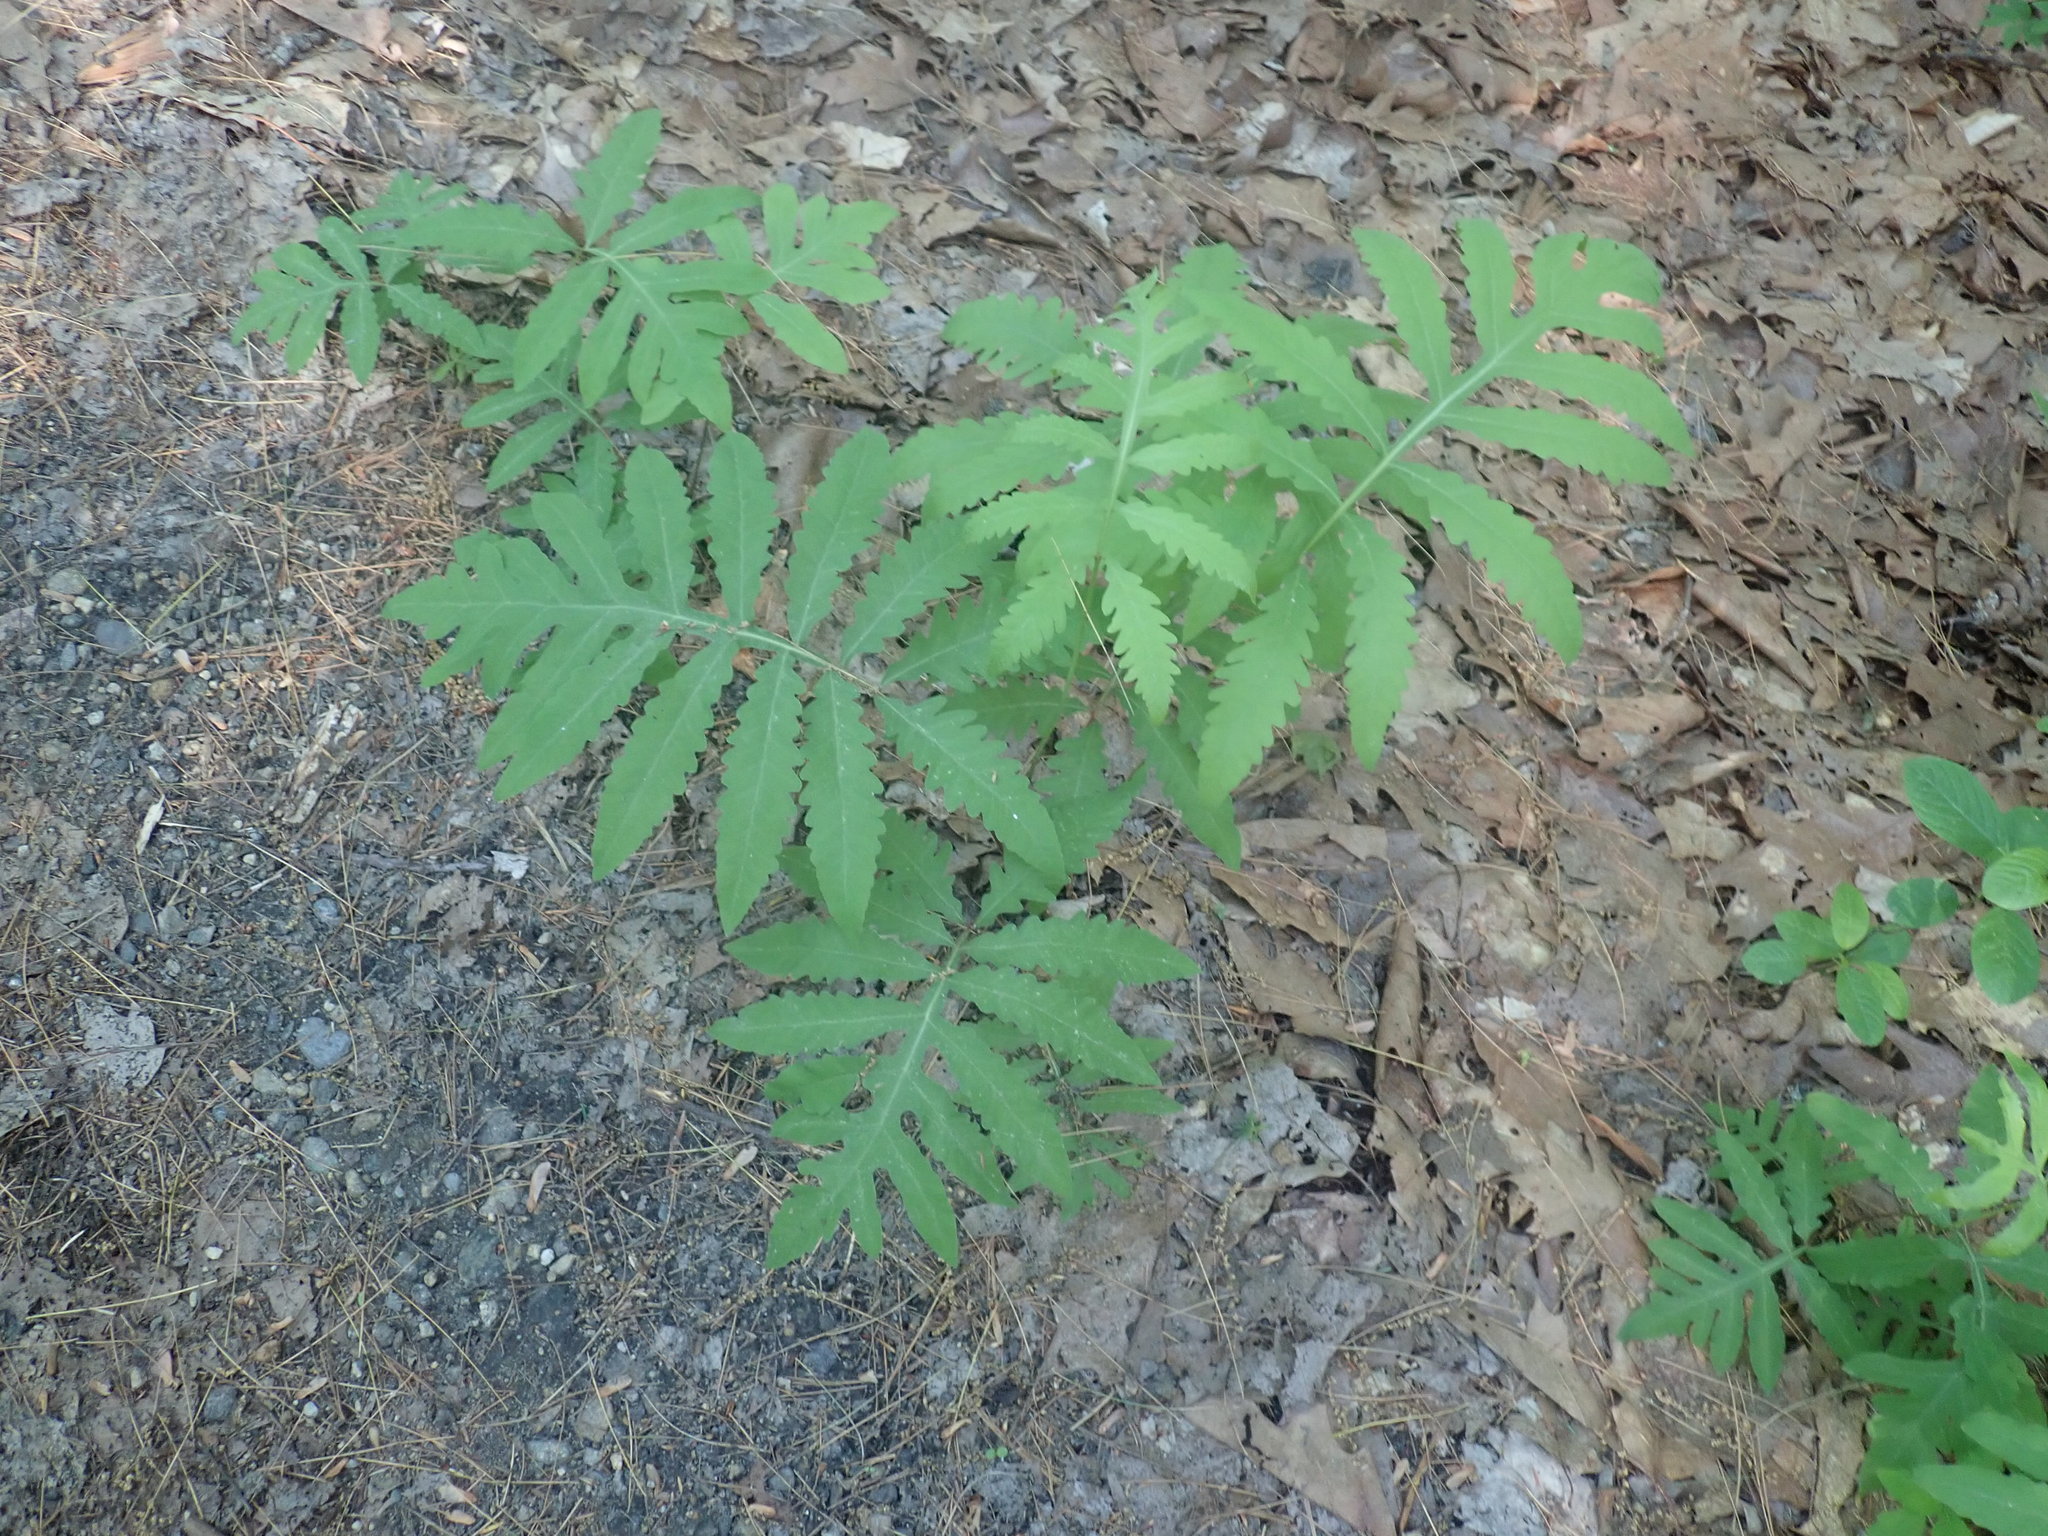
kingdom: Plantae
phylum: Tracheophyta
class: Polypodiopsida
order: Polypodiales
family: Onocleaceae
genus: Onoclea
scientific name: Onoclea sensibilis
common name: Sensitive fern
